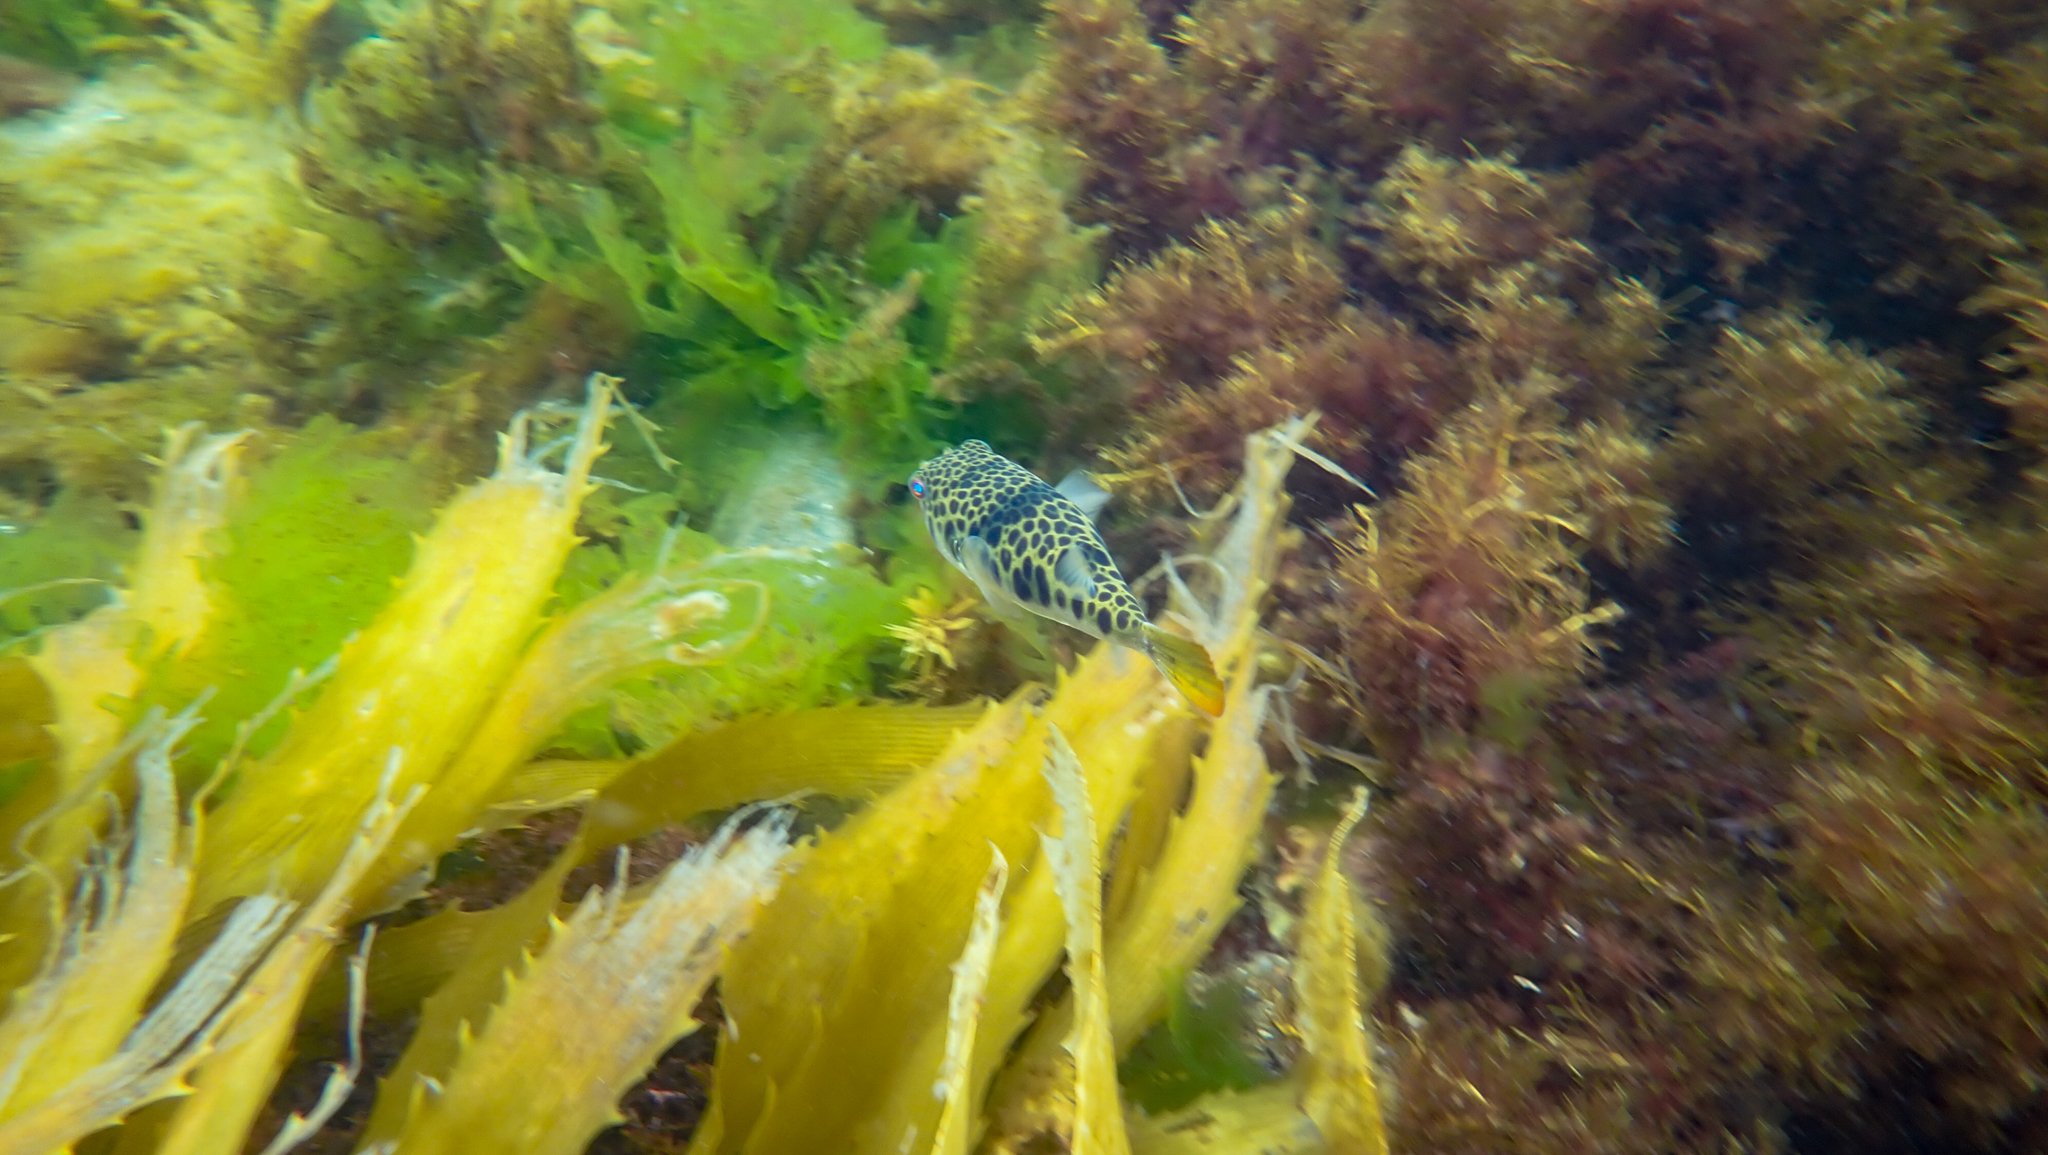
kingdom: Animalia
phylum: Chordata
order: Tetraodontiformes
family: Tetraodontidae
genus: Tetractenos
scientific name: Tetractenos glaber
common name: Smooth toadfish
